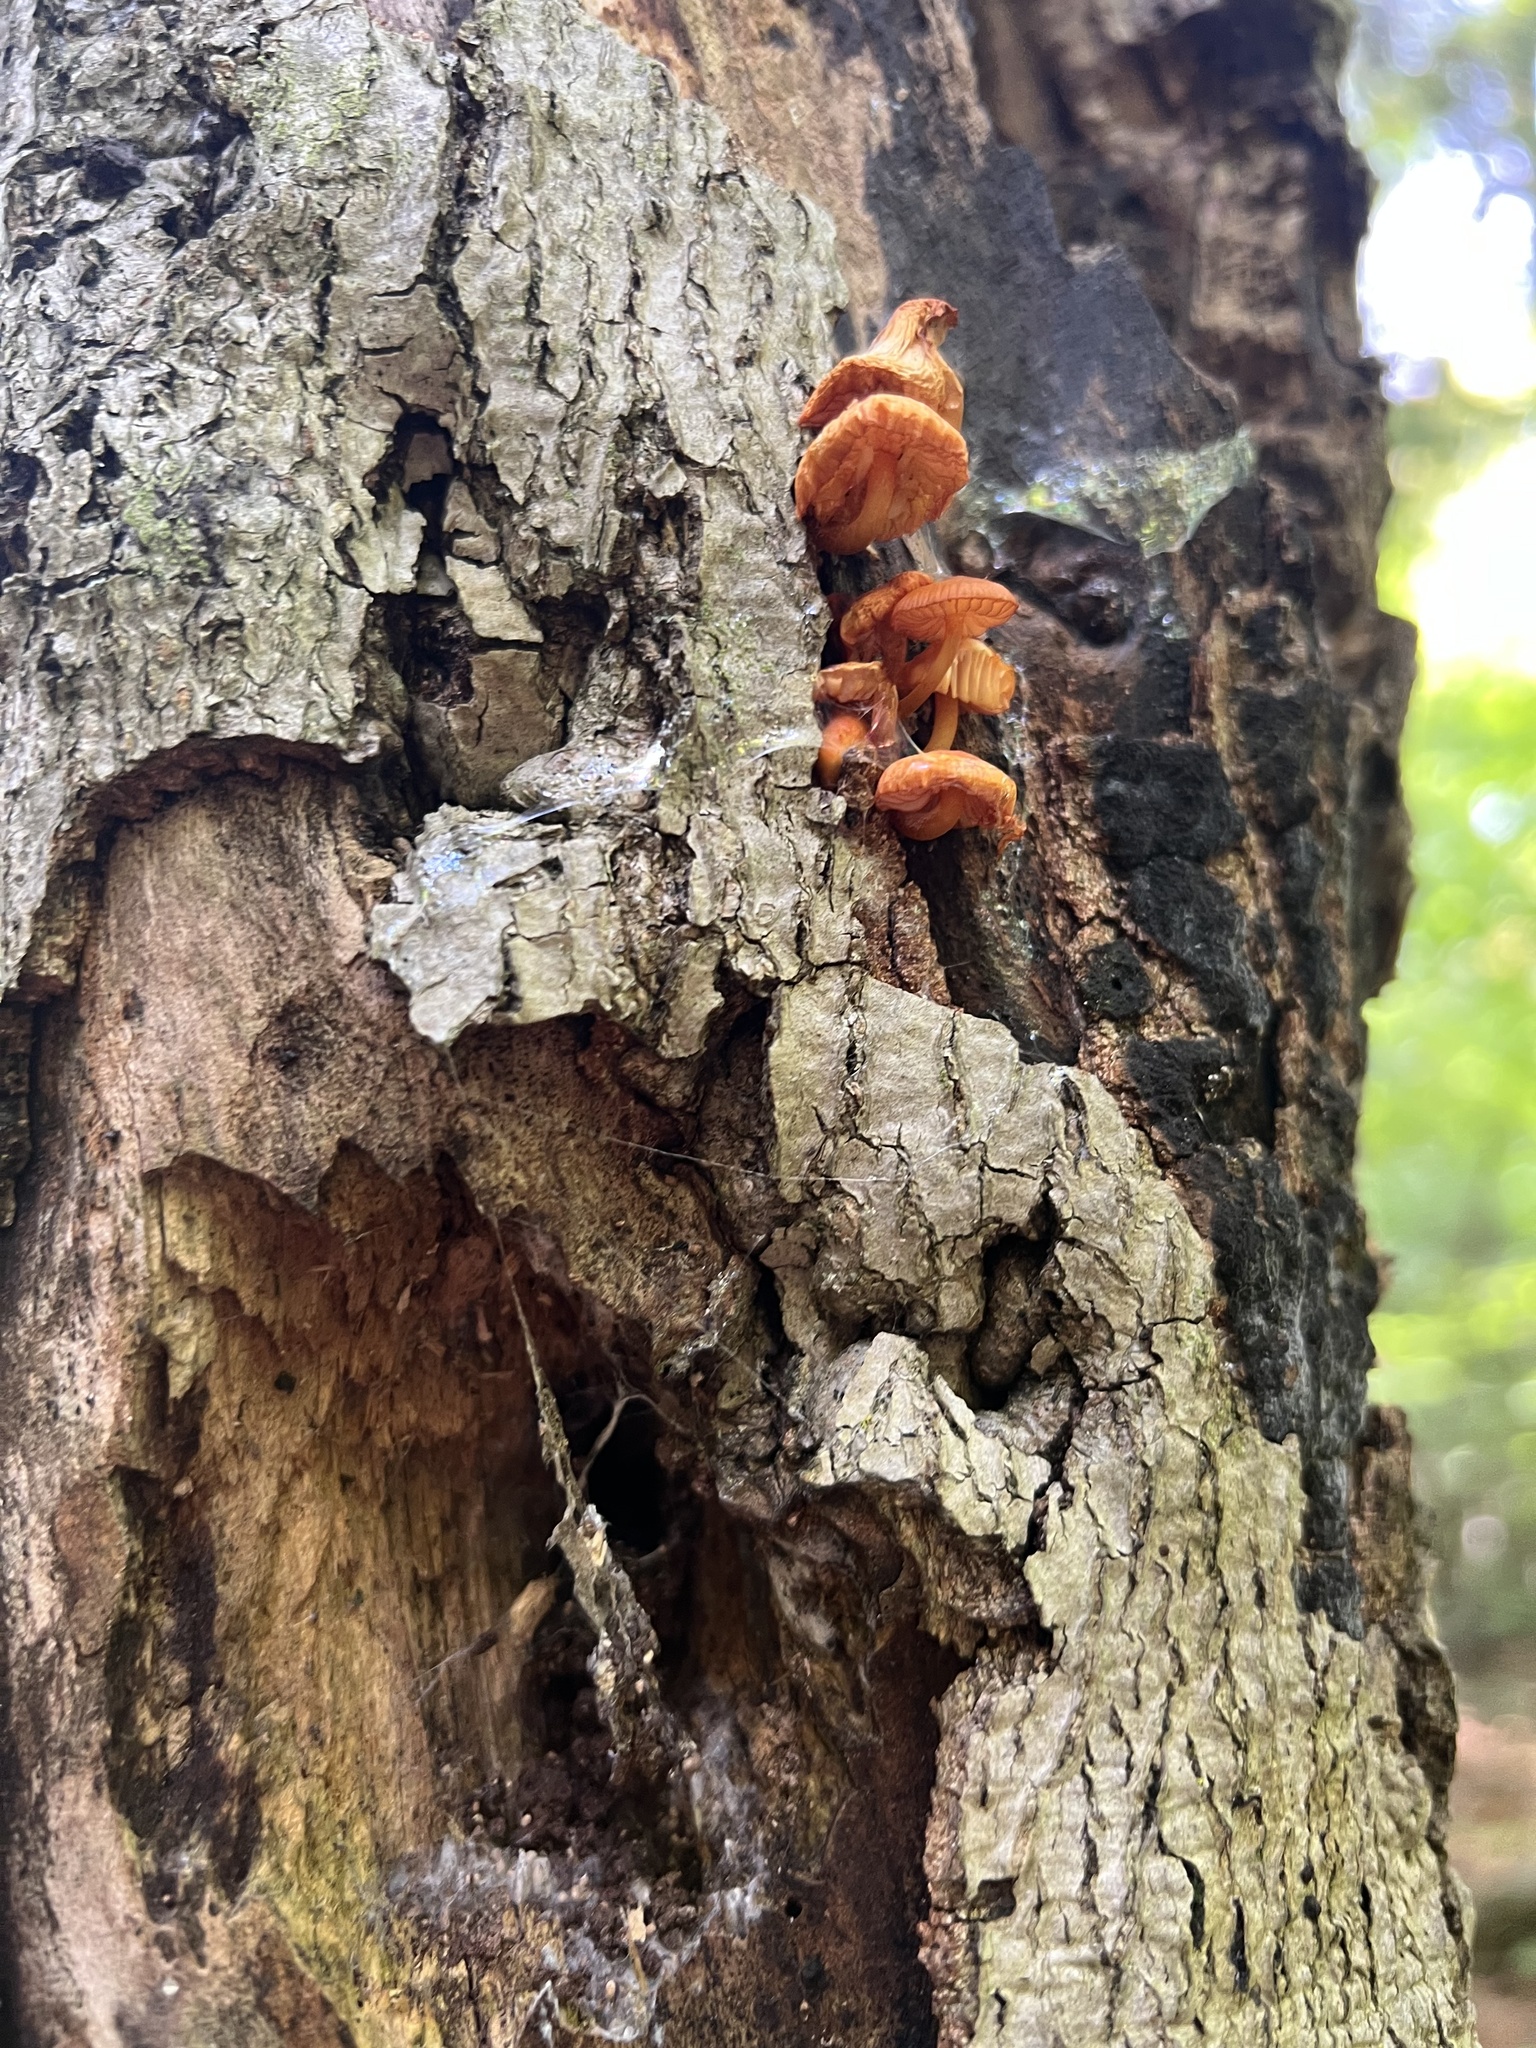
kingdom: Fungi
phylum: Basidiomycota
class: Agaricomycetes
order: Agaricales
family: Mycenaceae
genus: Mycena
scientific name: Mycena leaiana
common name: Orange mycena
